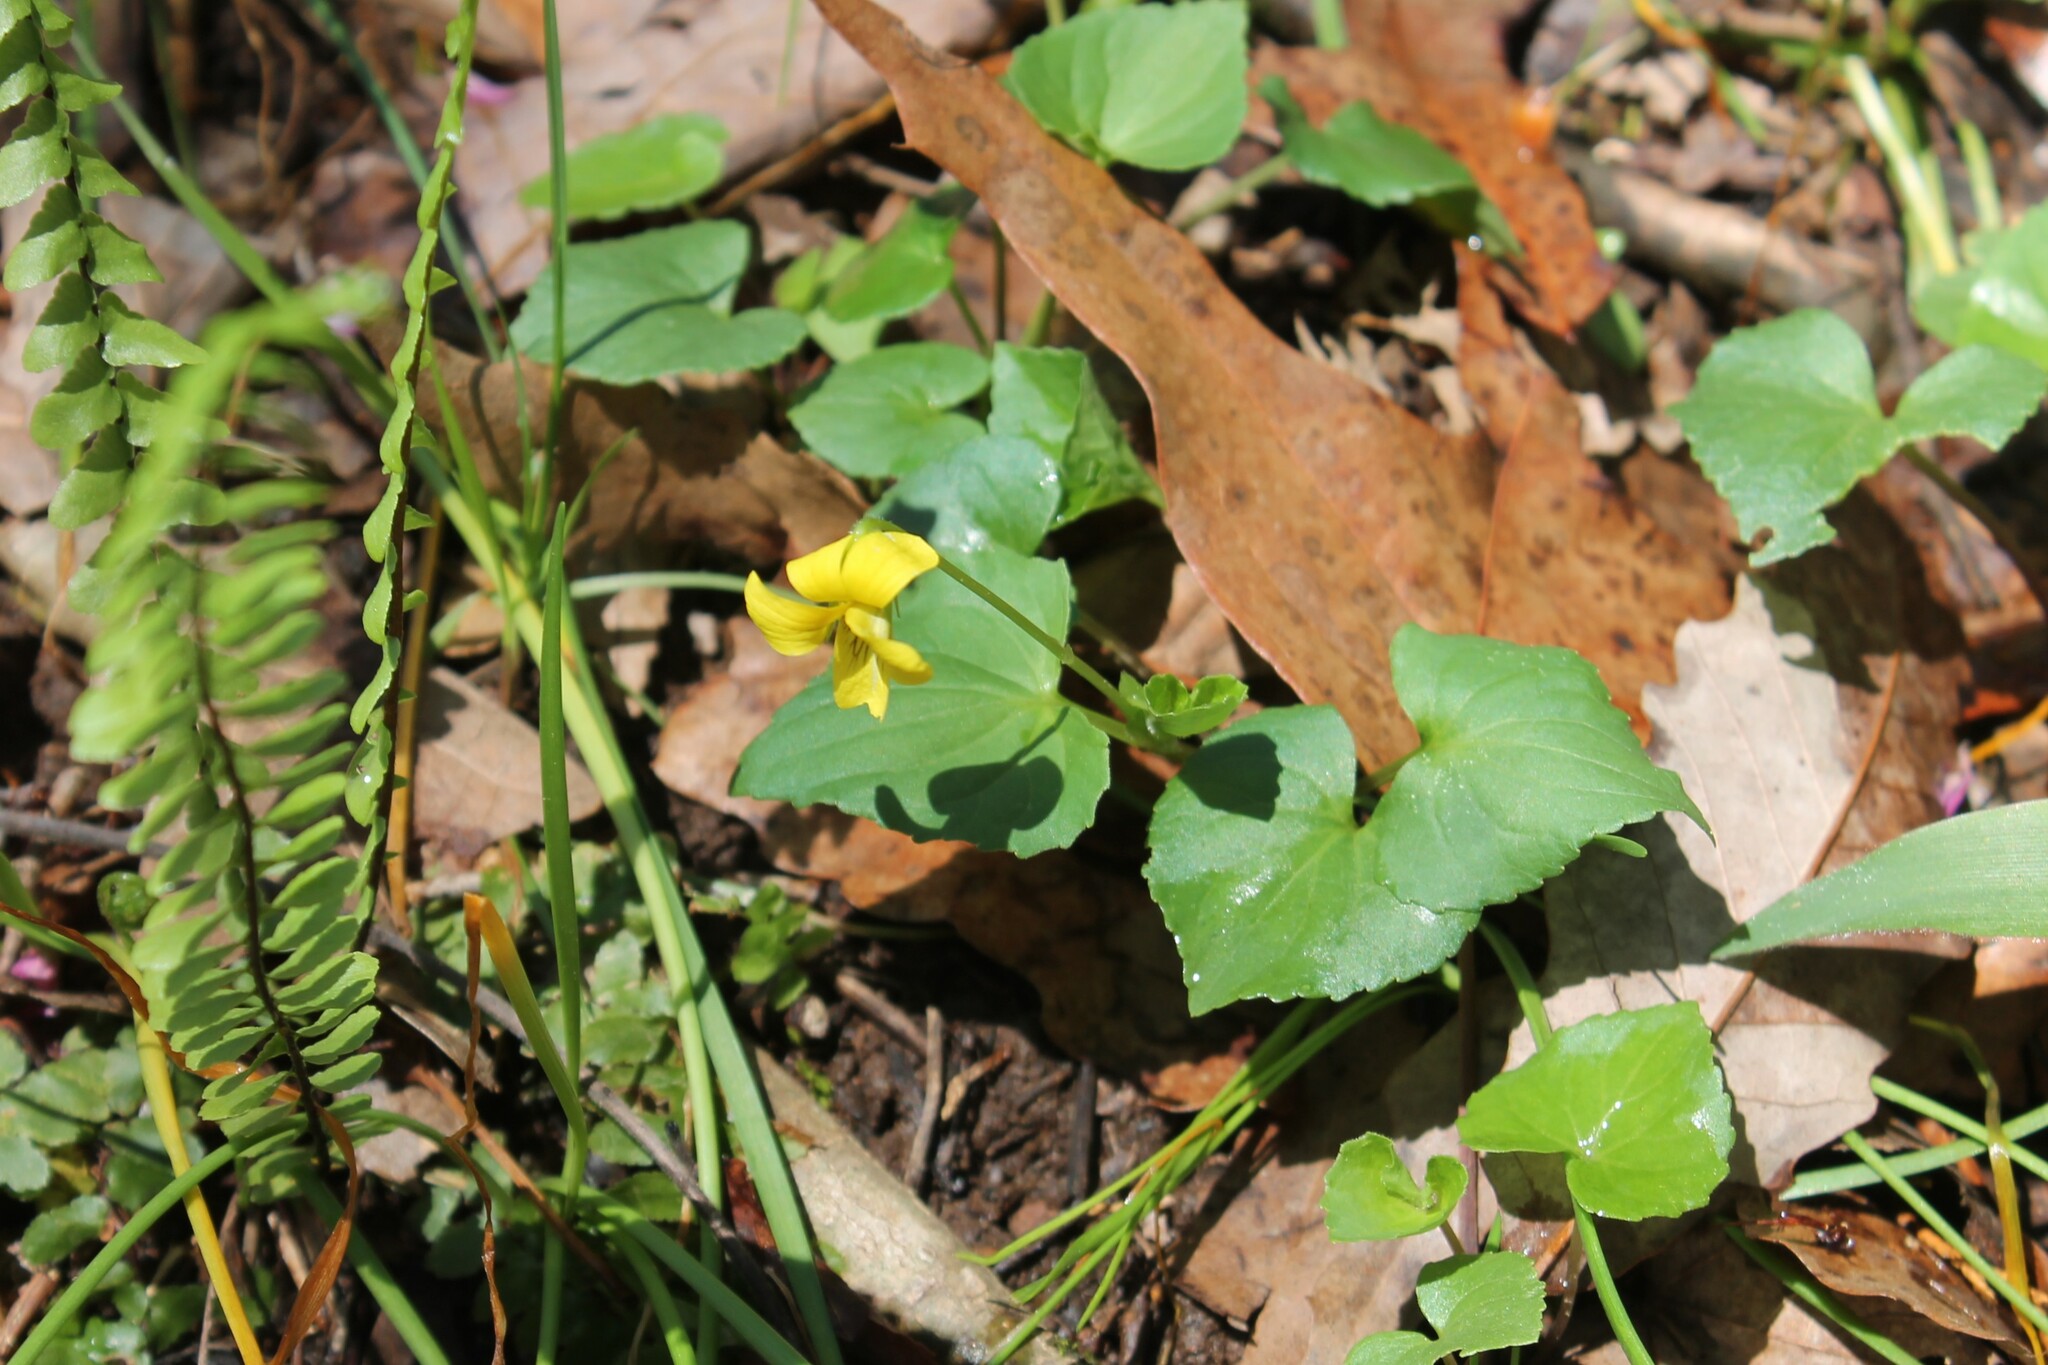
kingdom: Plantae
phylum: Tracheophyta
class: Magnoliopsida
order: Malpighiales
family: Violaceae
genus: Viola
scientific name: Viola eriocarpa
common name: Smooth yellow violet
